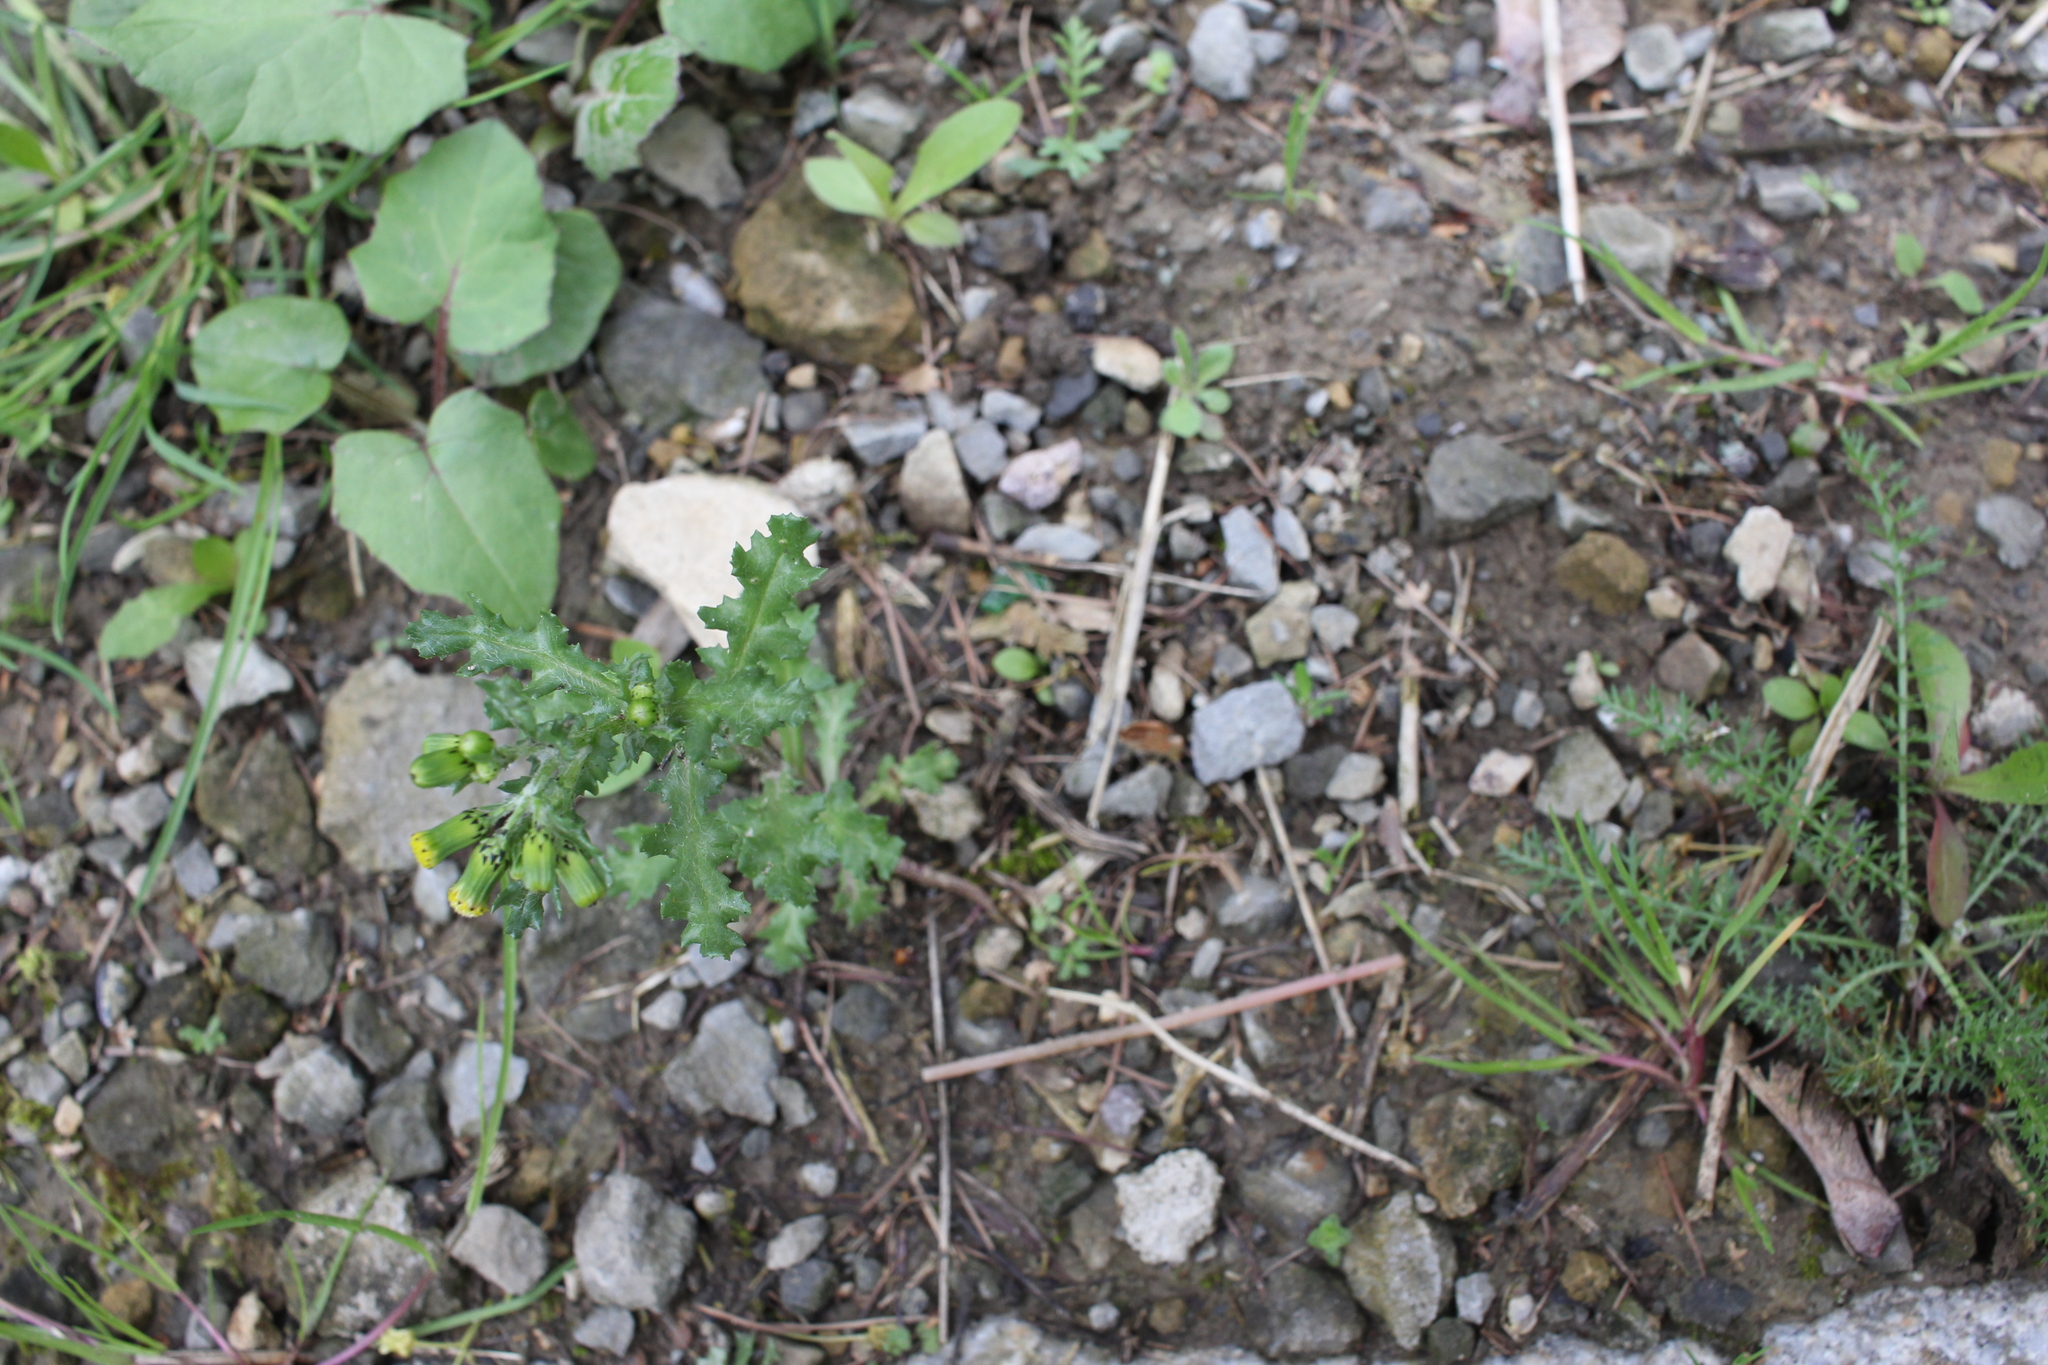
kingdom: Plantae
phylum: Tracheophyta
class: Magnoliopsida
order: Asterales
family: Asteraceae
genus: Senecio
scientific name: Senecio vulgaris
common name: Old-man-in-the-spring
